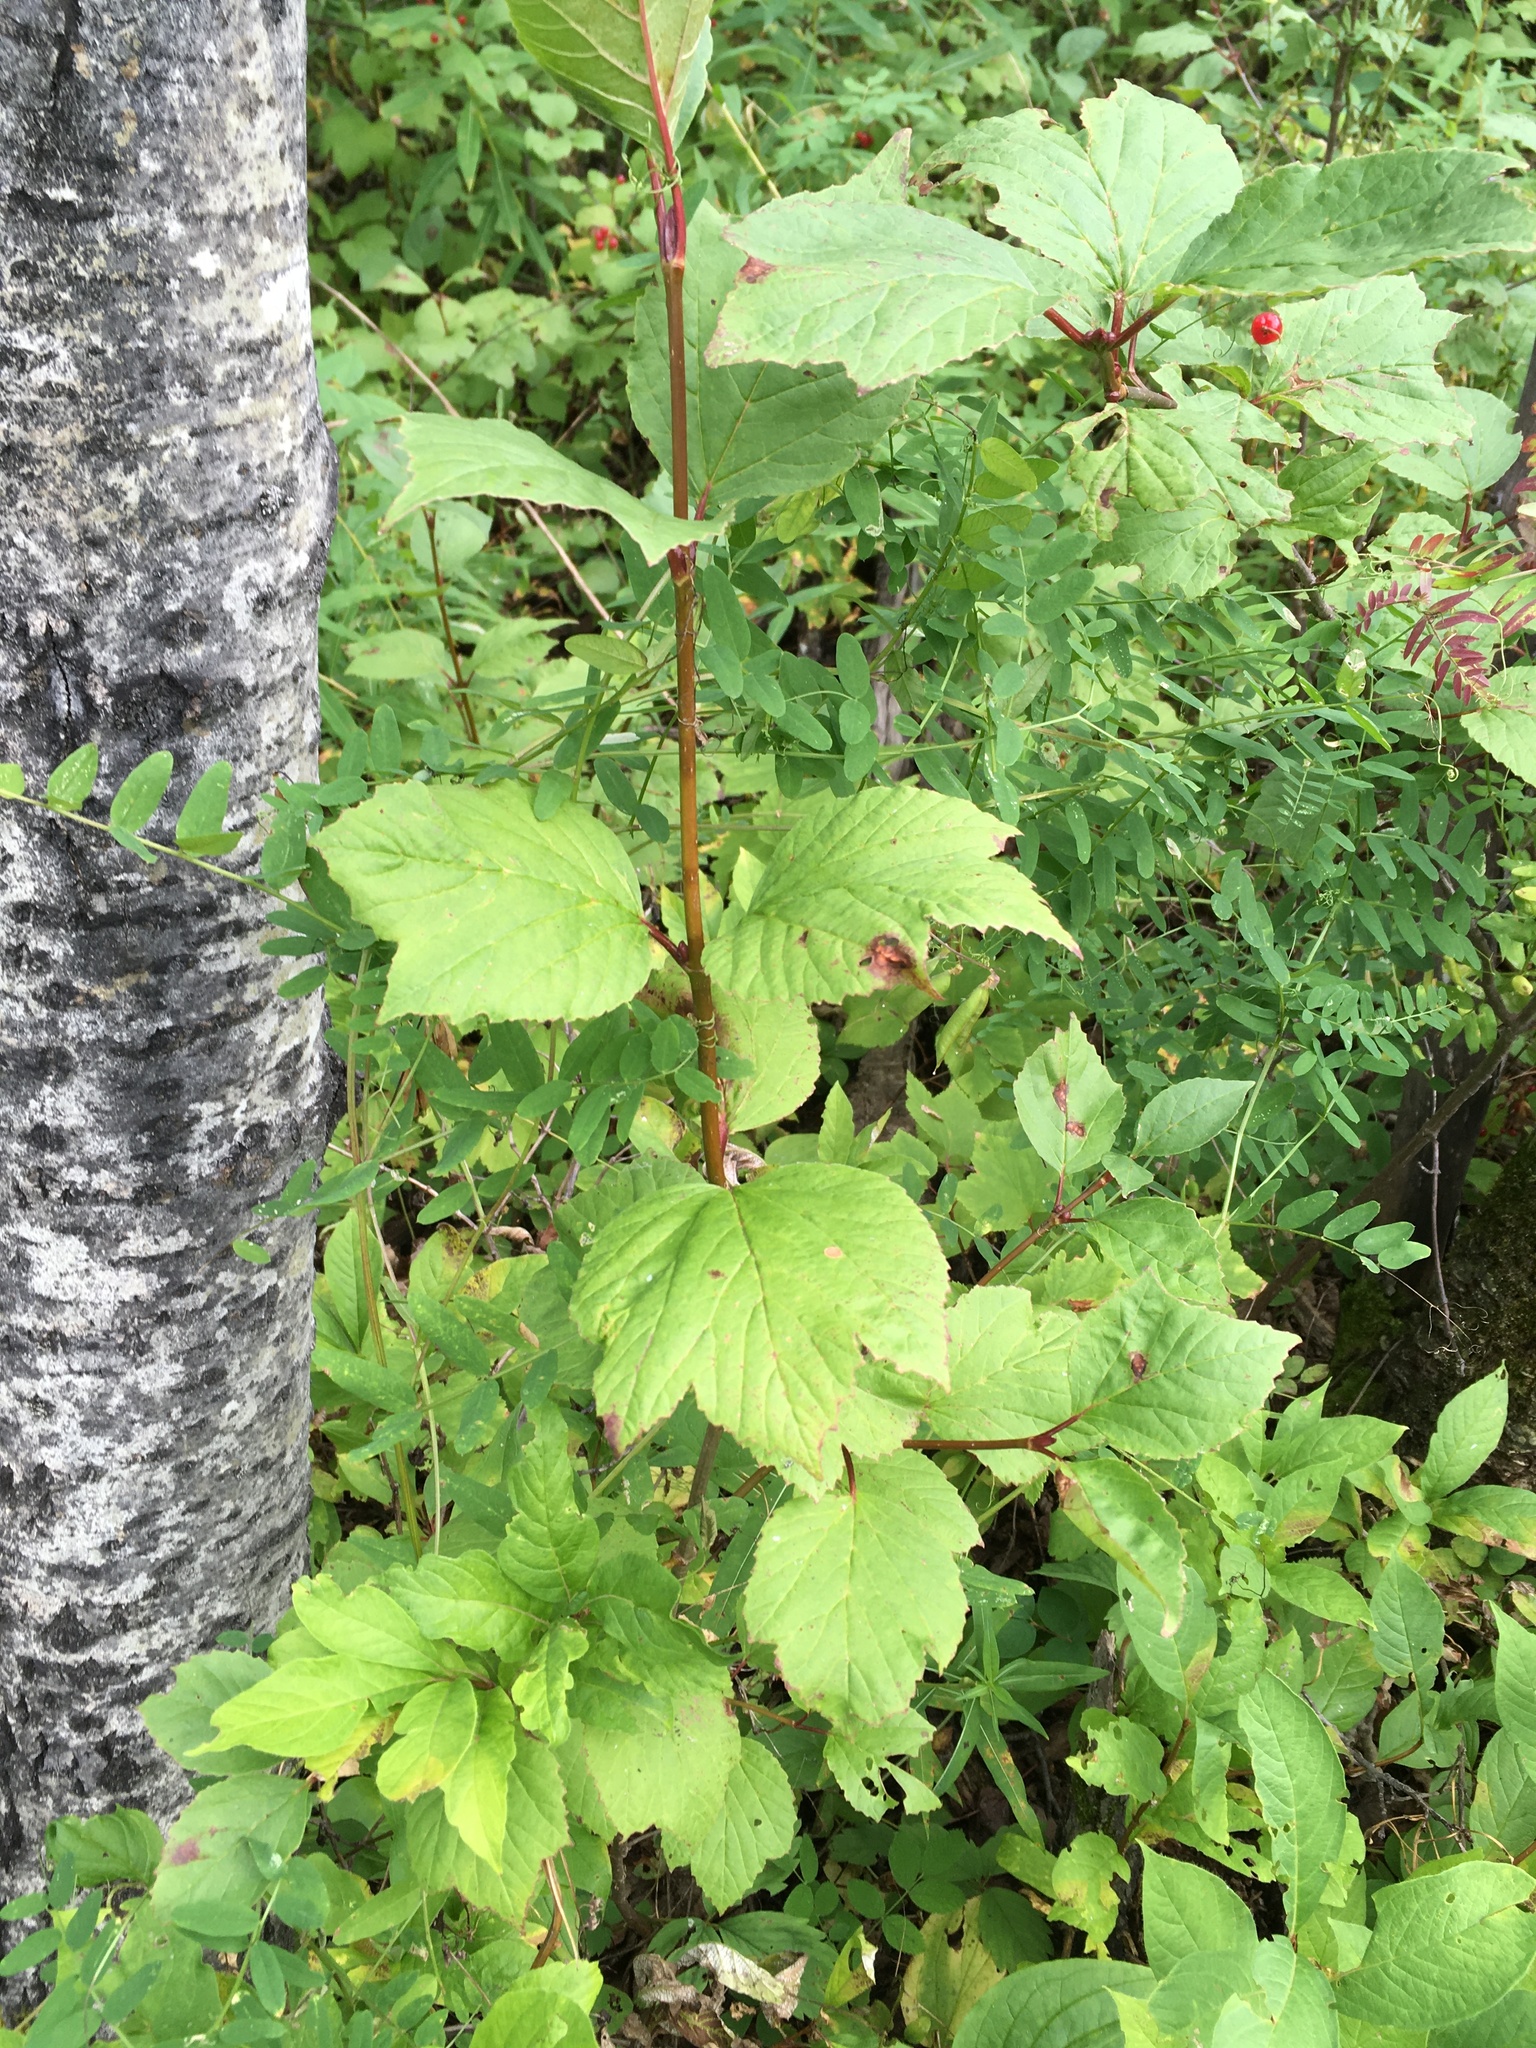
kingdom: Plantae
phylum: Tracheophyta
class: Magnoliopsida
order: Dipsacales
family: Viburnaceae
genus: Viburnum
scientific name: Viburnum edule
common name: Mooseberry
